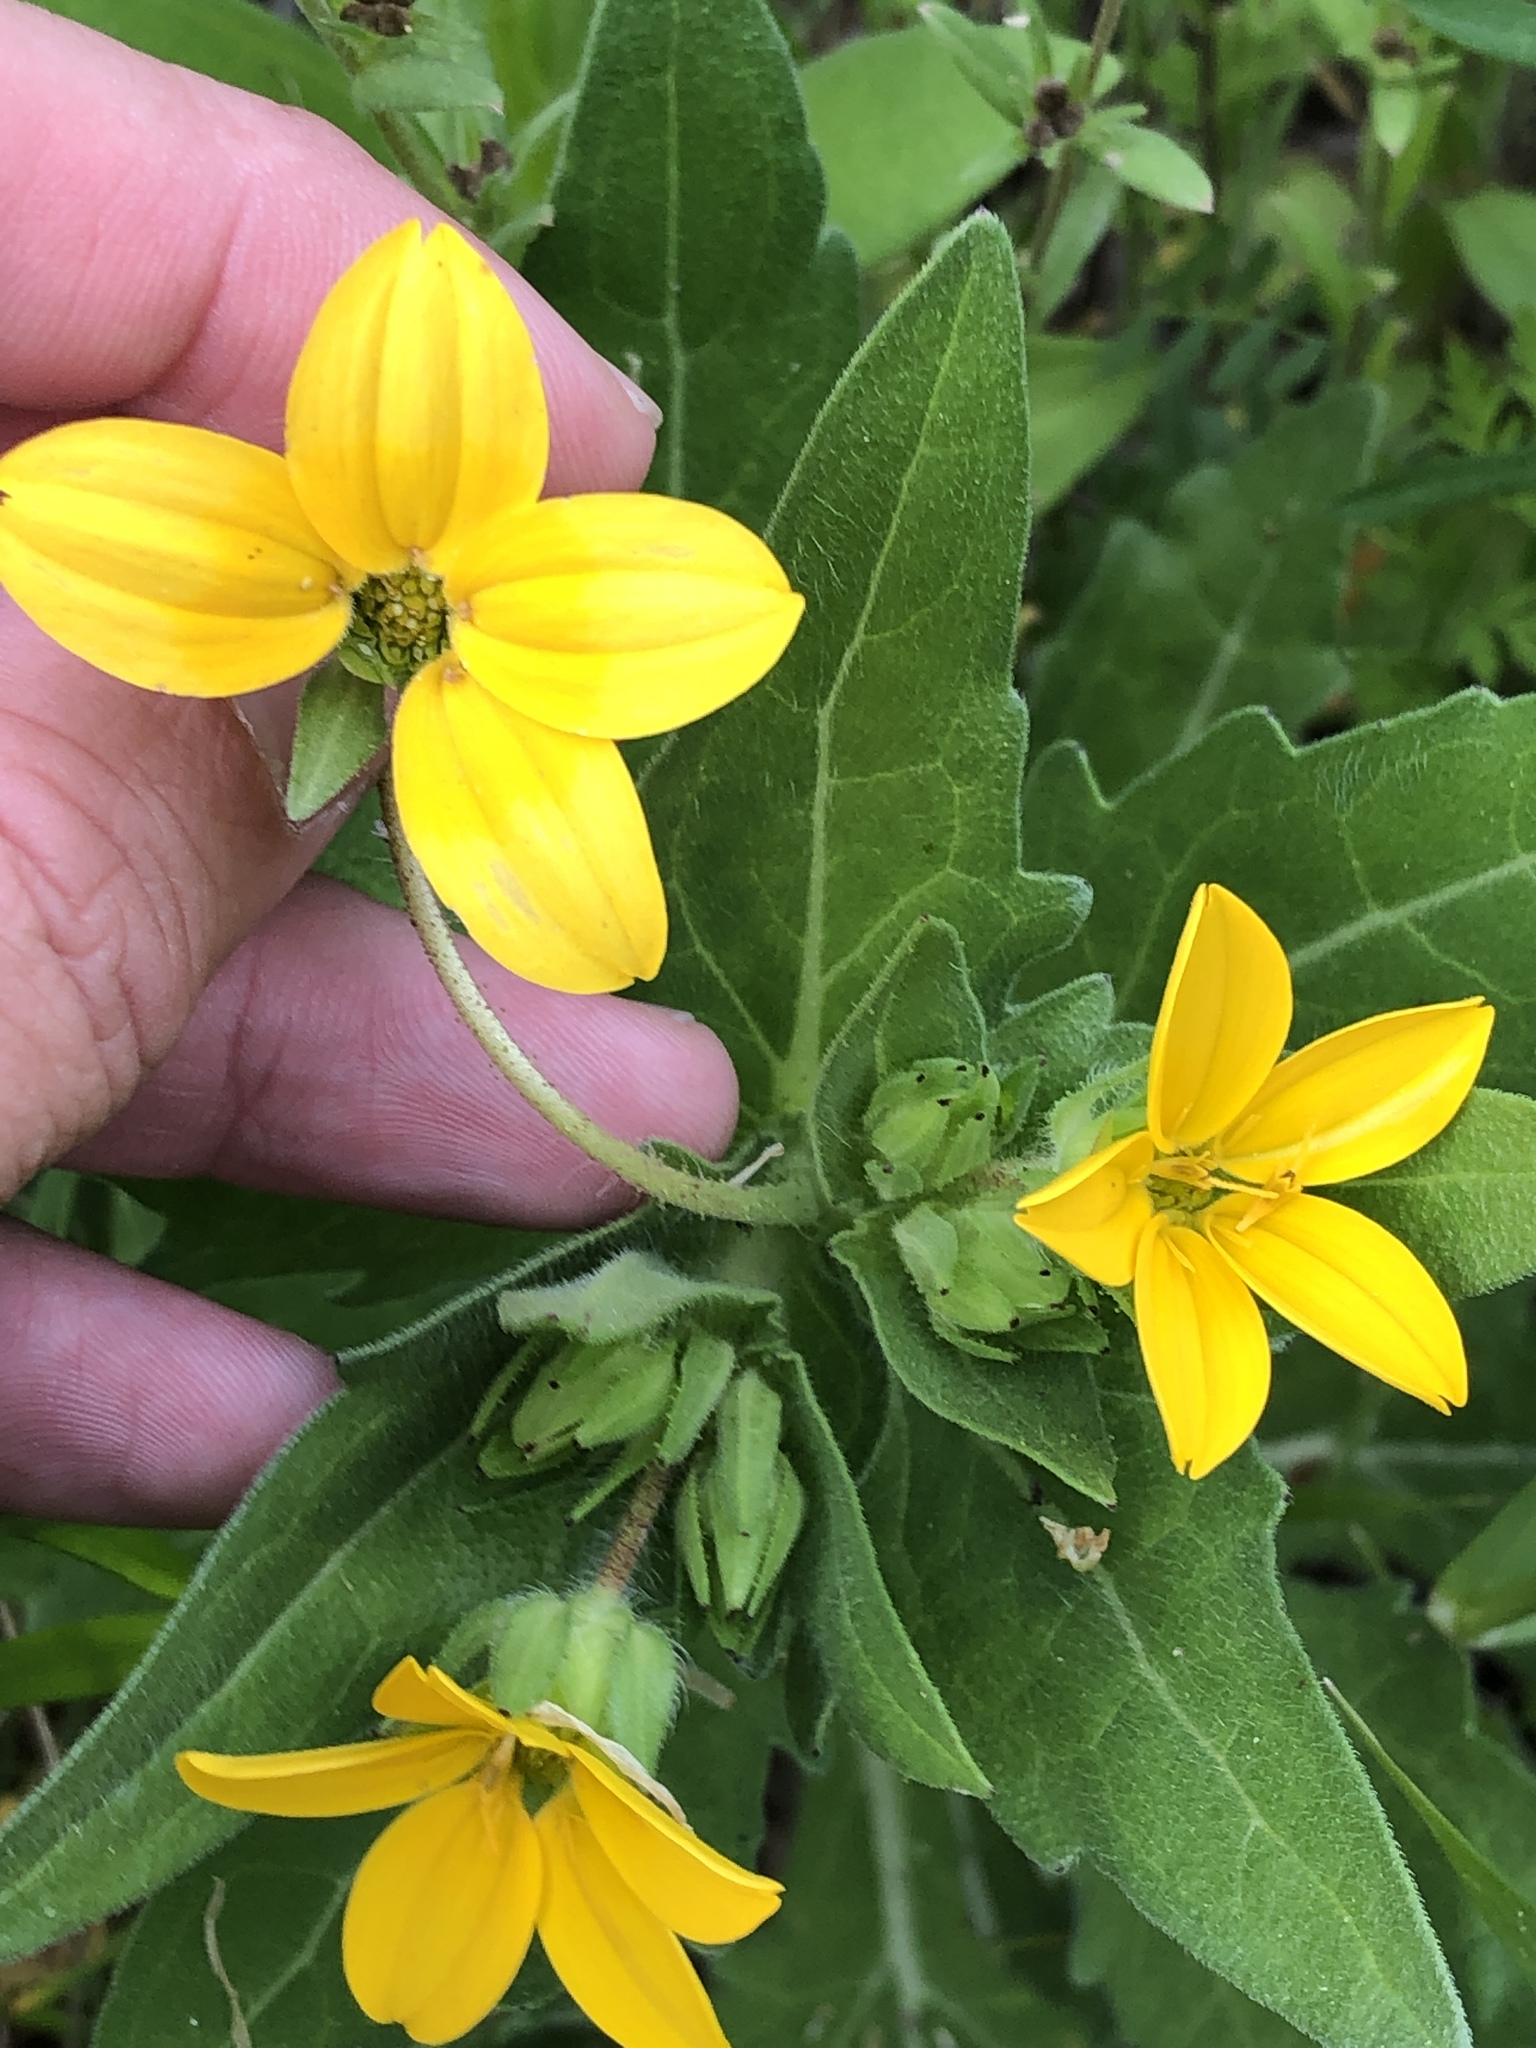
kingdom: Plantae
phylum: Tracheophyta
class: Magnoliopsida
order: Asterales
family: Asteraceae
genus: Lindheimera
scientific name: Lindheimera texana
